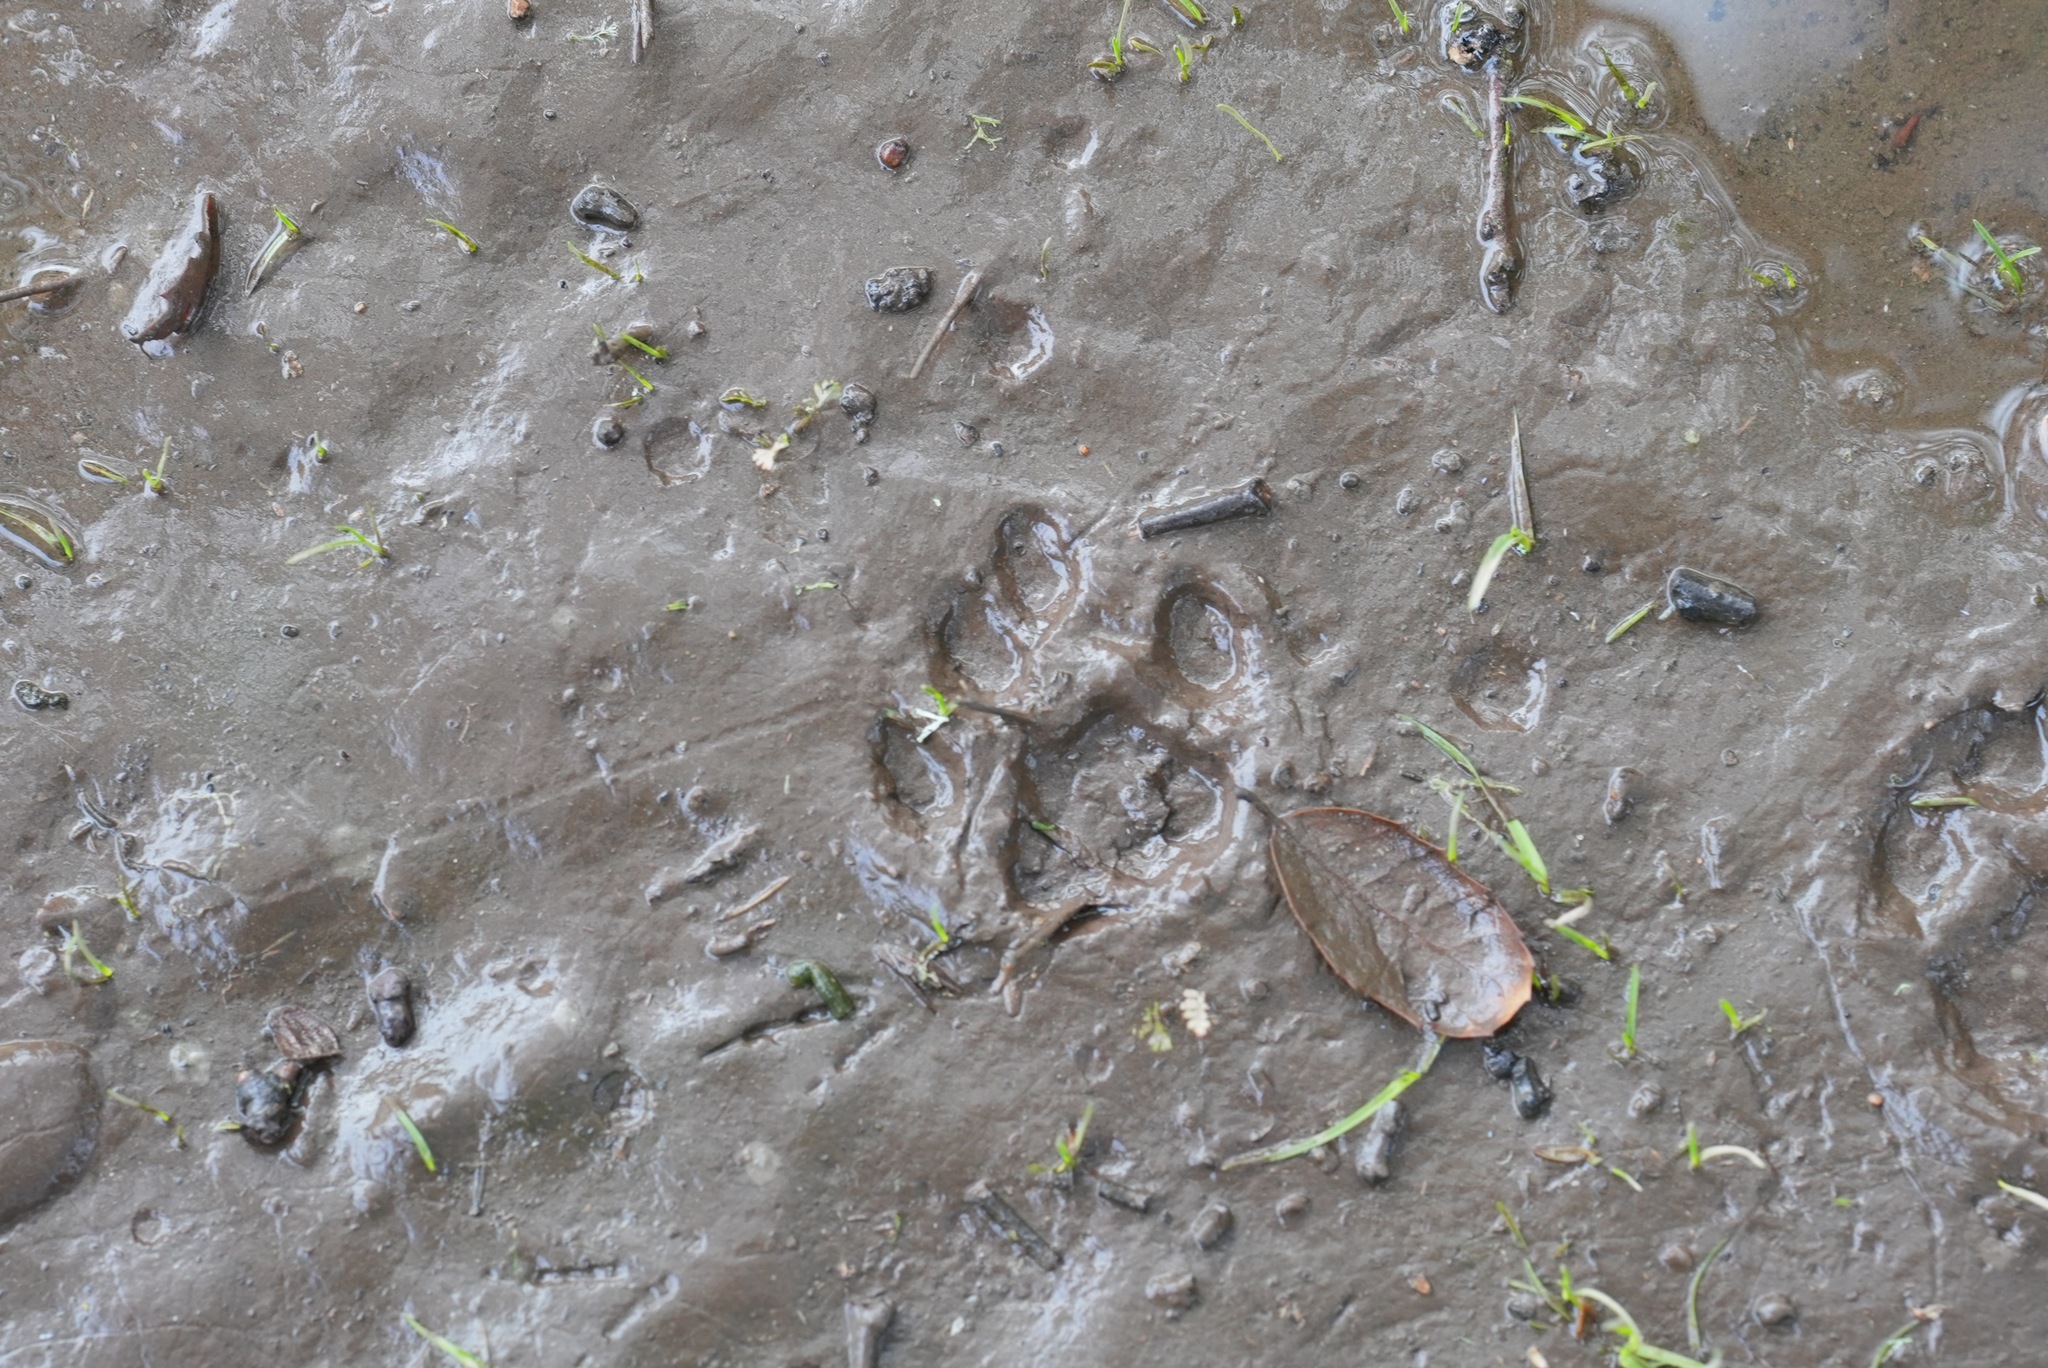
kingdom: Animalia
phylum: Chordata
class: Mammalia
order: Carnivora
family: Felidae
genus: Lynx
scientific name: Lynx rufus
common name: Bobcat
